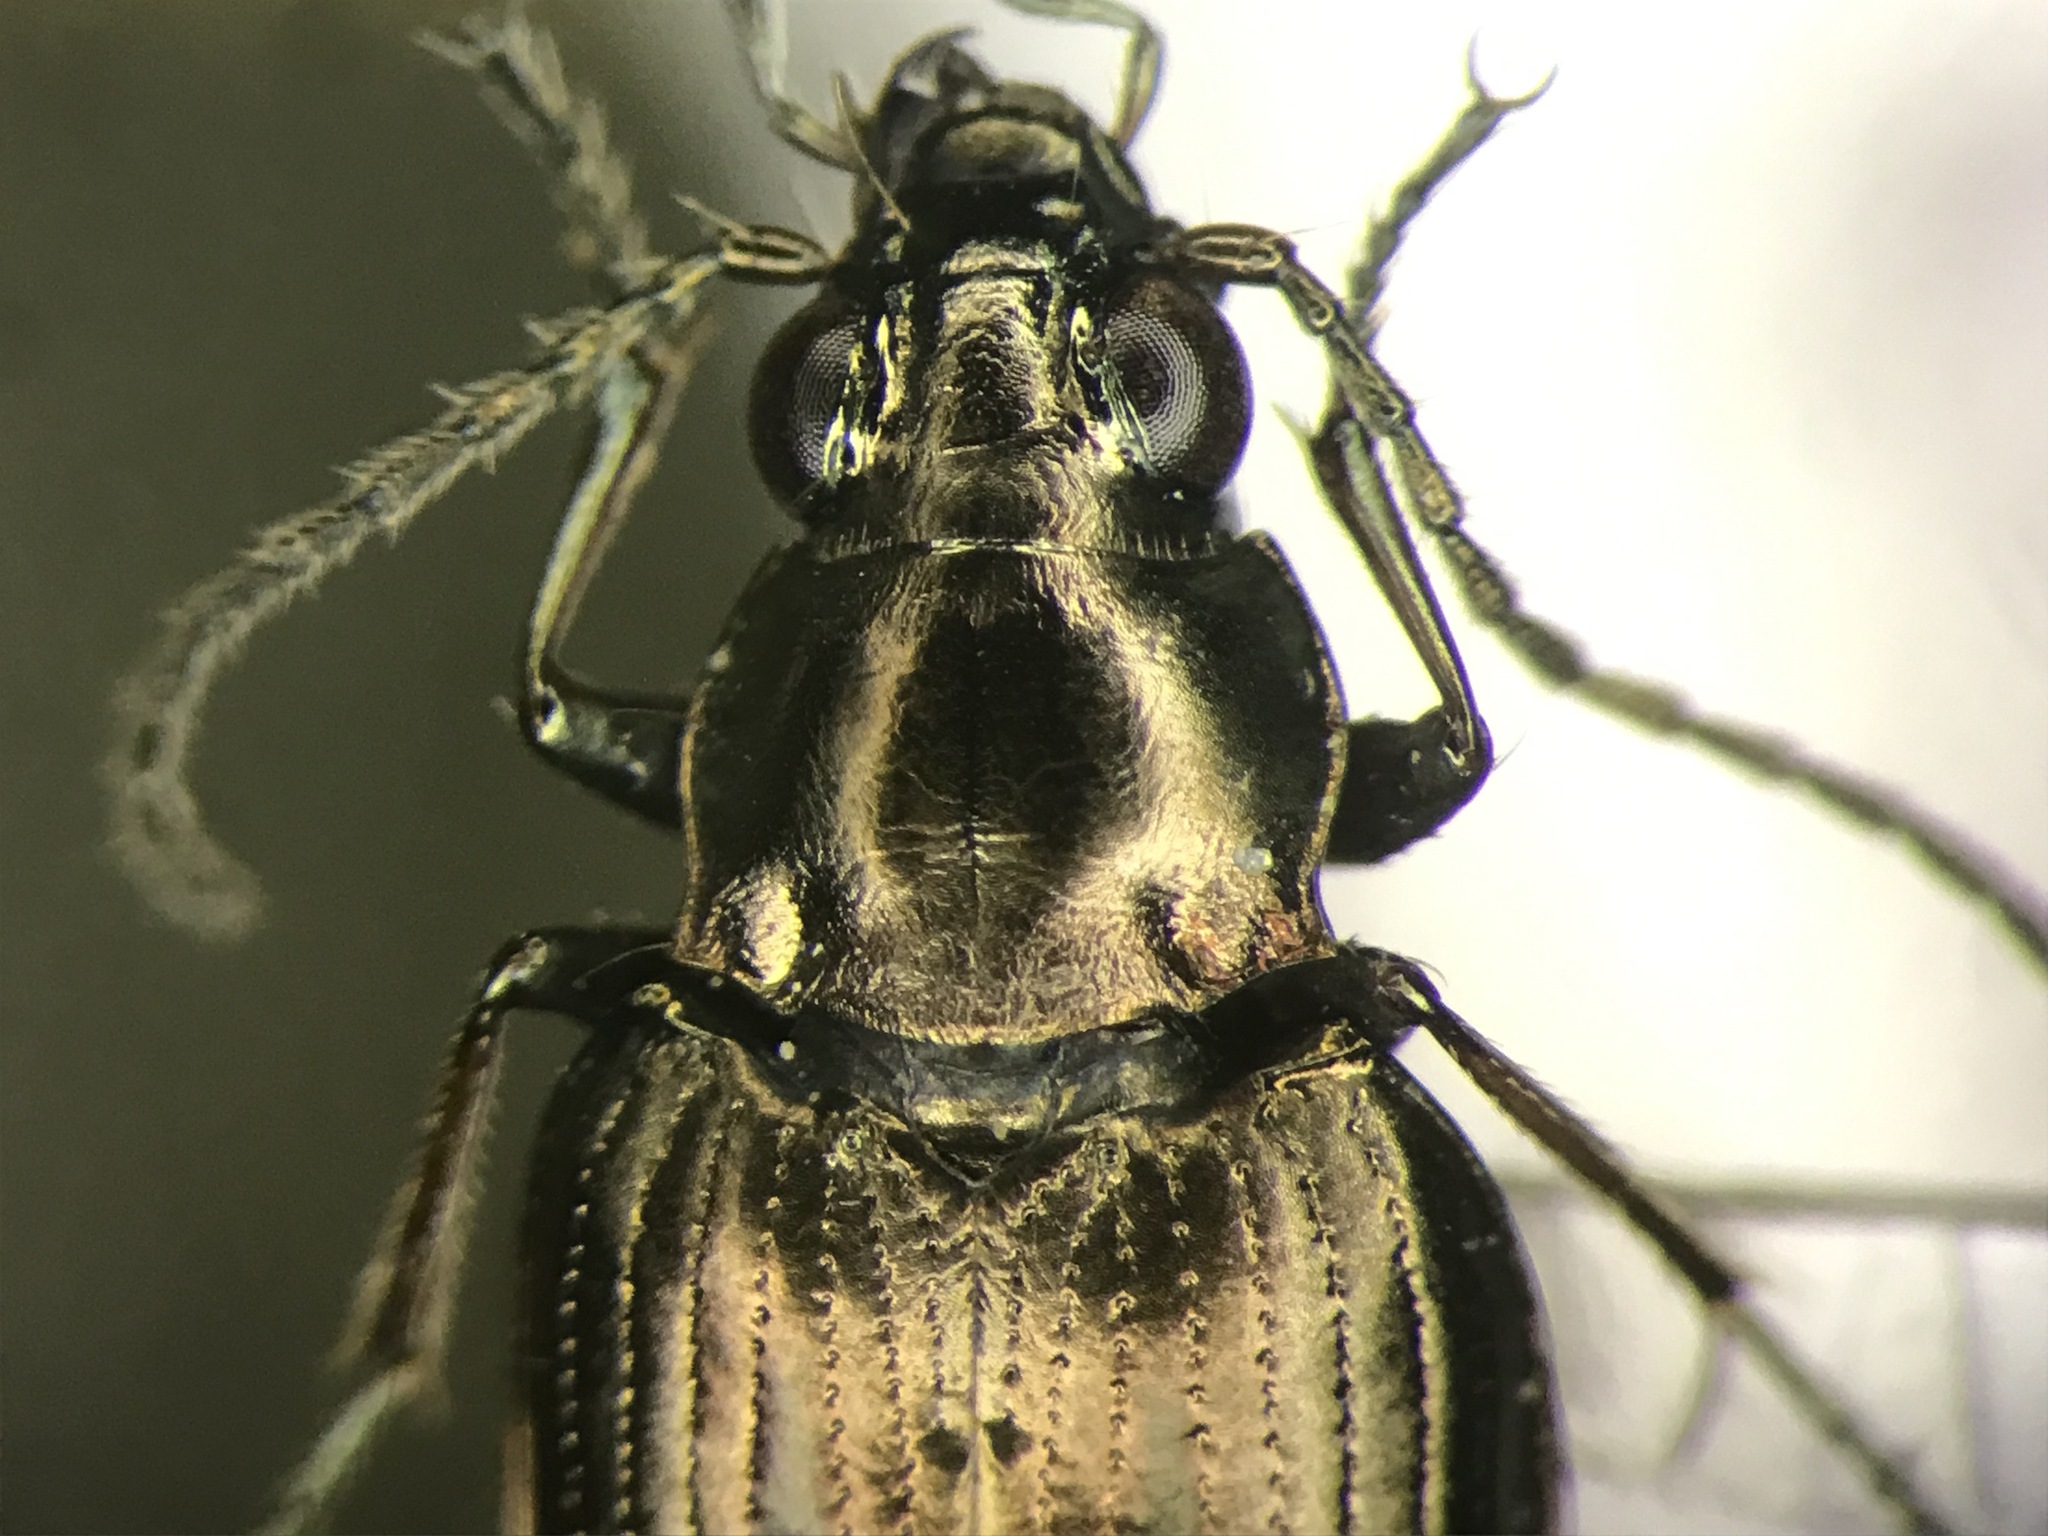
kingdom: Animalia
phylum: Arthropoda
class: Insecta
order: Coleoptera
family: Carabidae
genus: Bembidion
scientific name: Bembidion punctatostriatum
